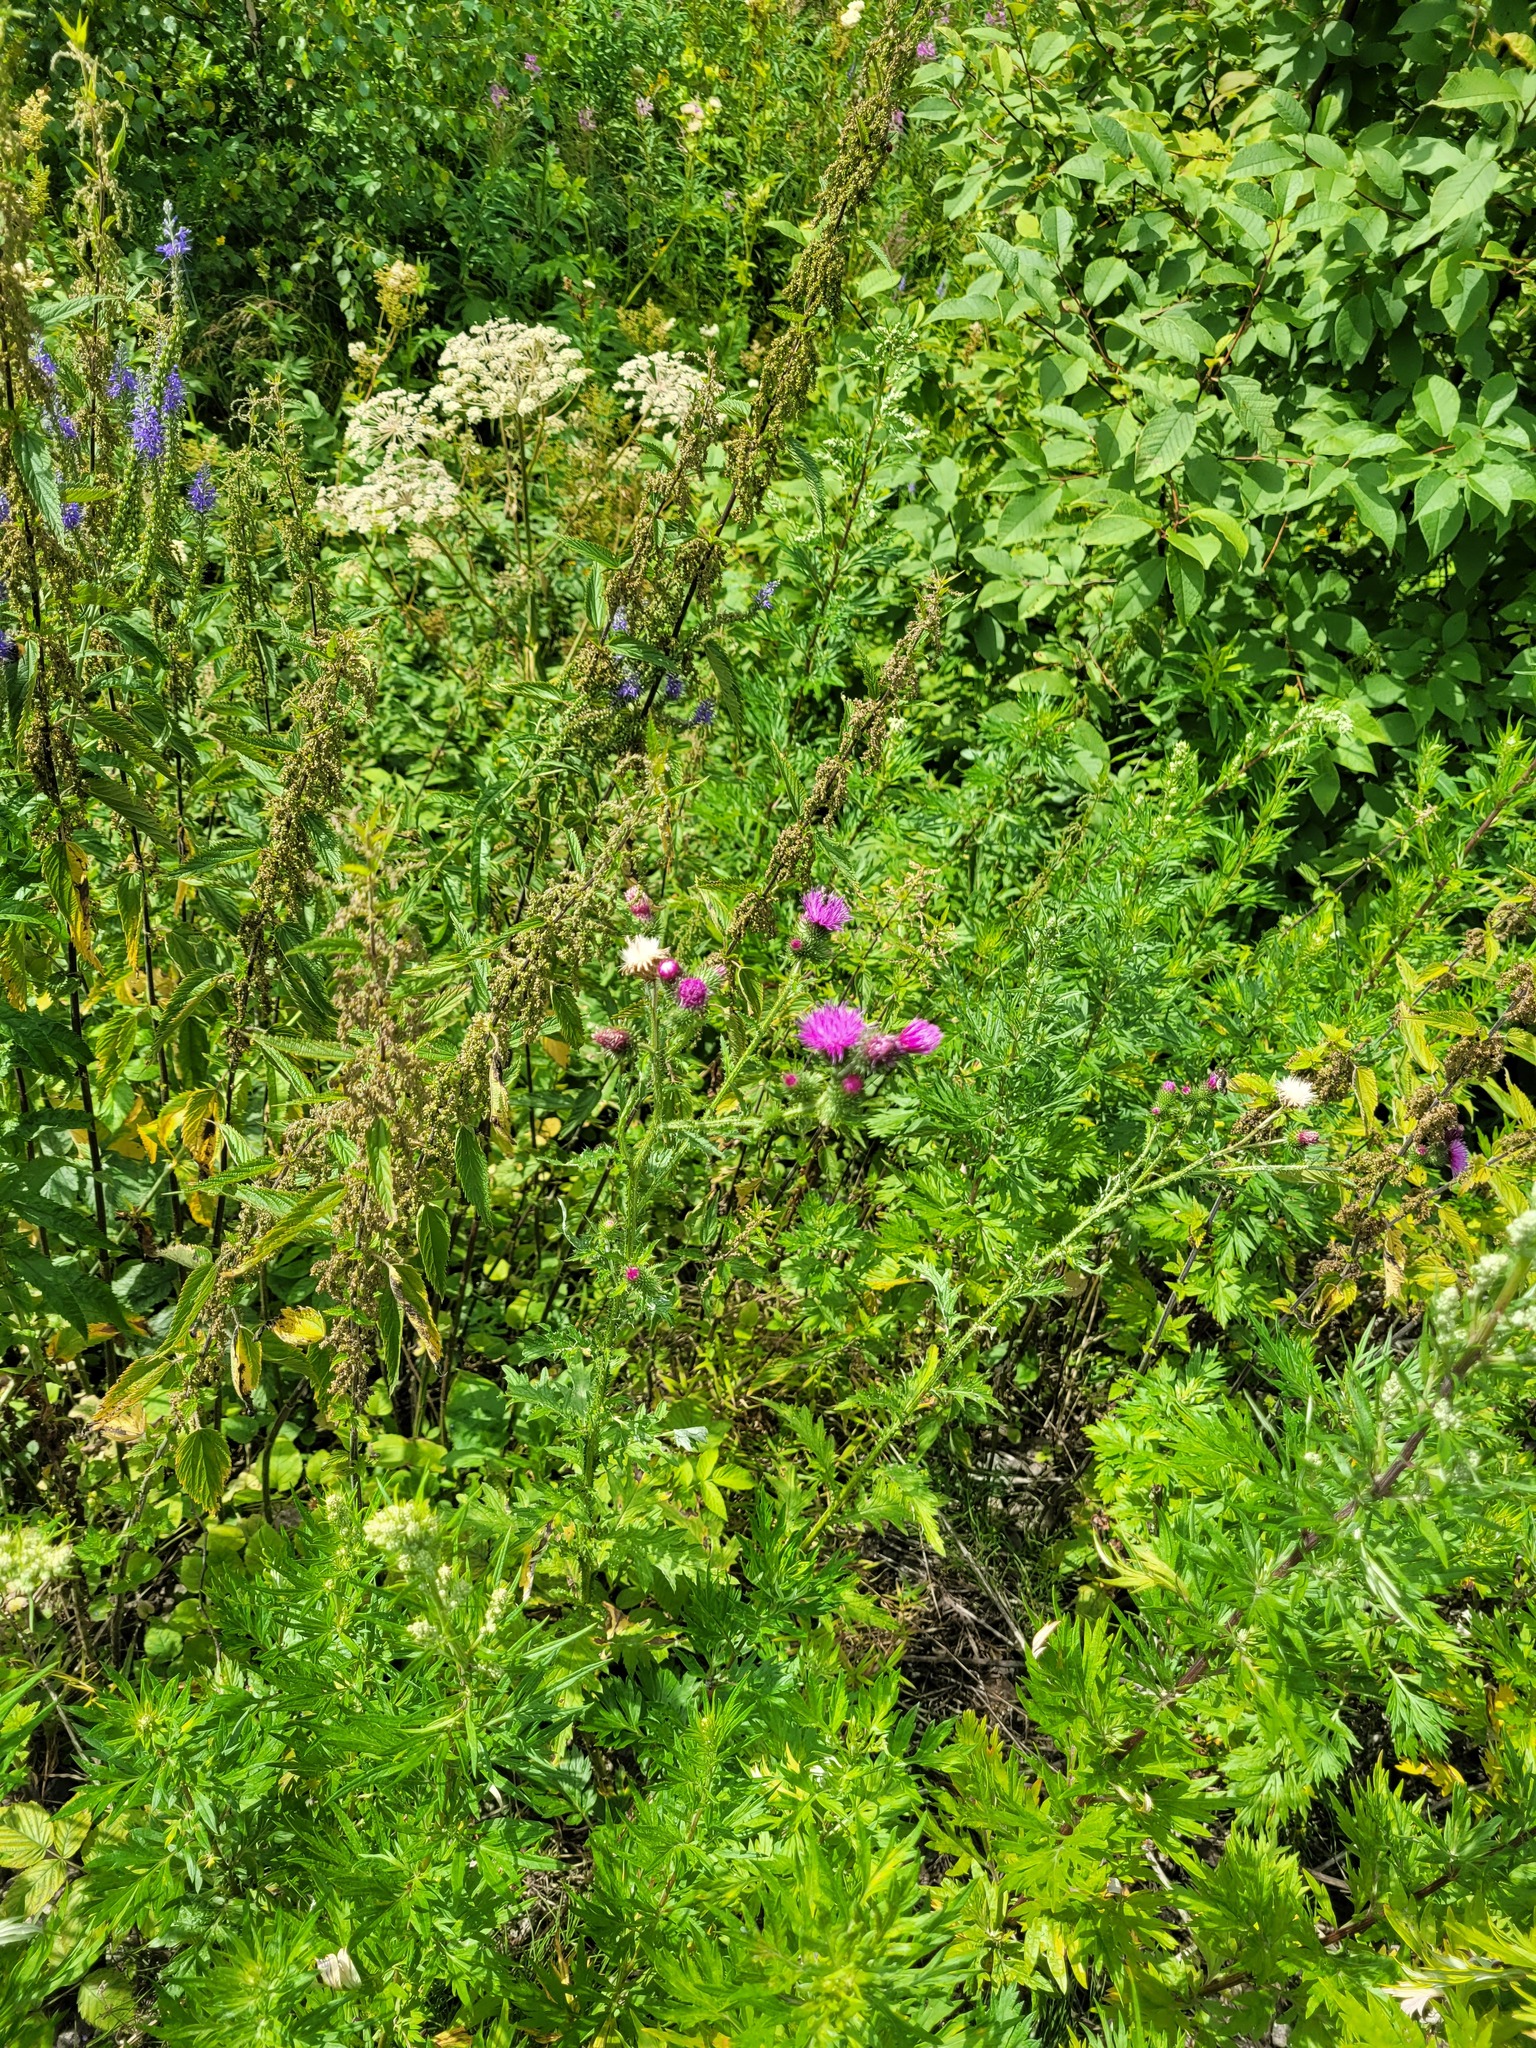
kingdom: Plantae
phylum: Tracheophyta
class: Magnoliopsida
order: Asterales
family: Asteraceae
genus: Carduus
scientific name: Carduus crispus
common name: Welted thistle
